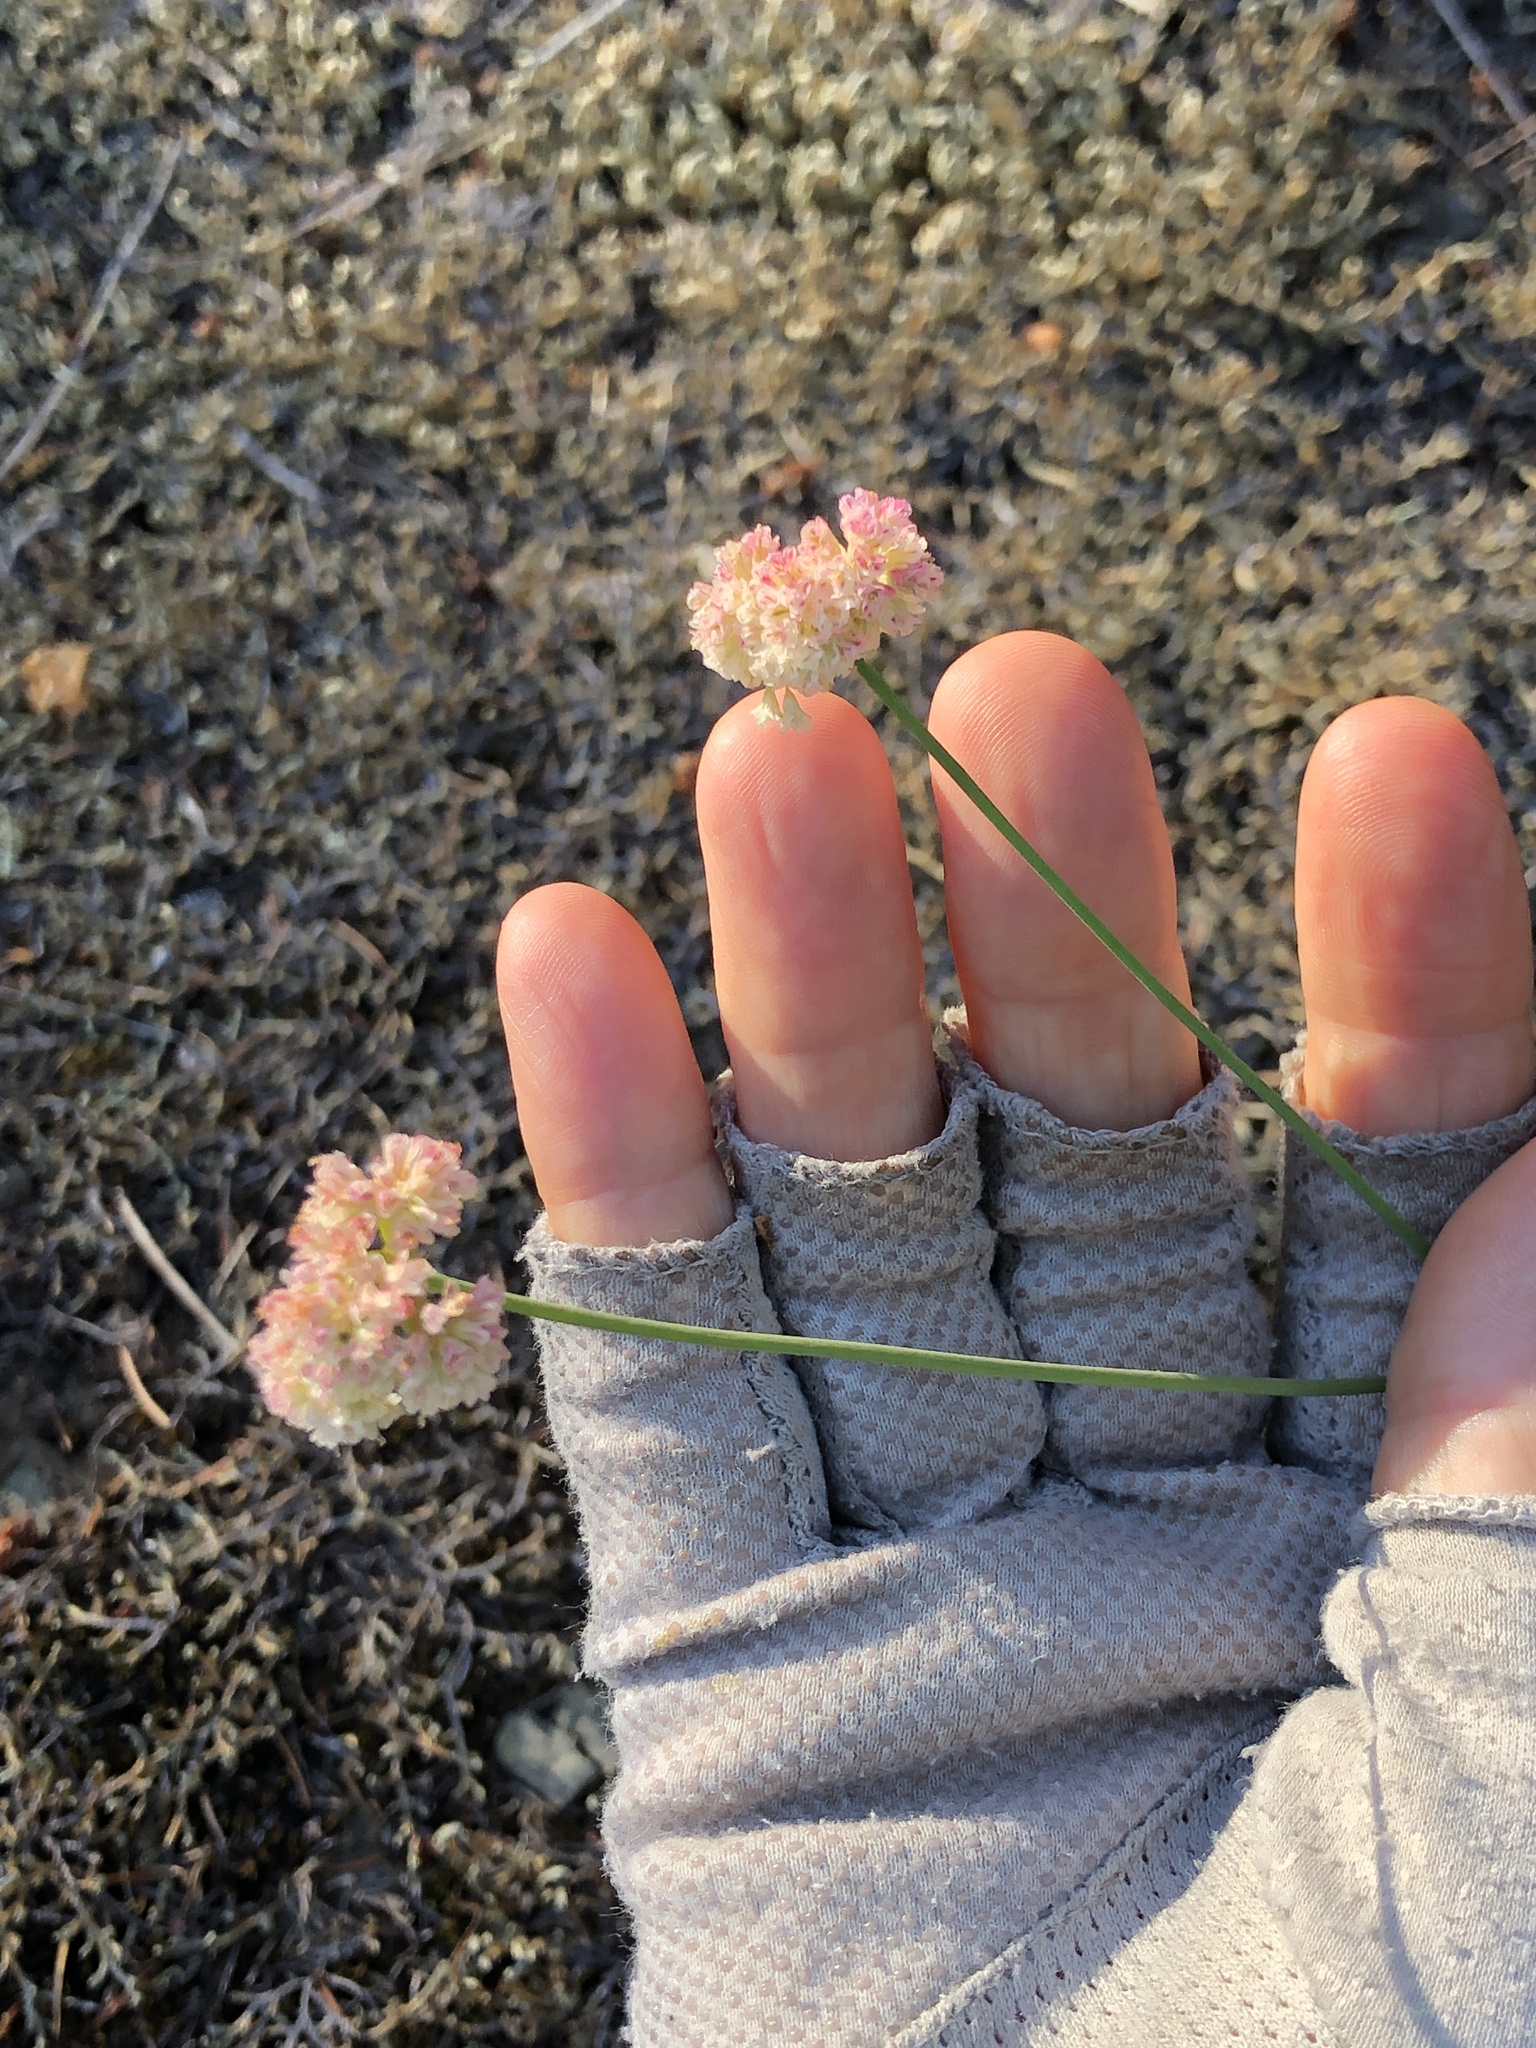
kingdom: Plantae
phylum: Tracheophyta
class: Magnoliopsida
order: Caryophyllales
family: Polygonaceae
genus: Eriogonum
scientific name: Eriogonum nudum
